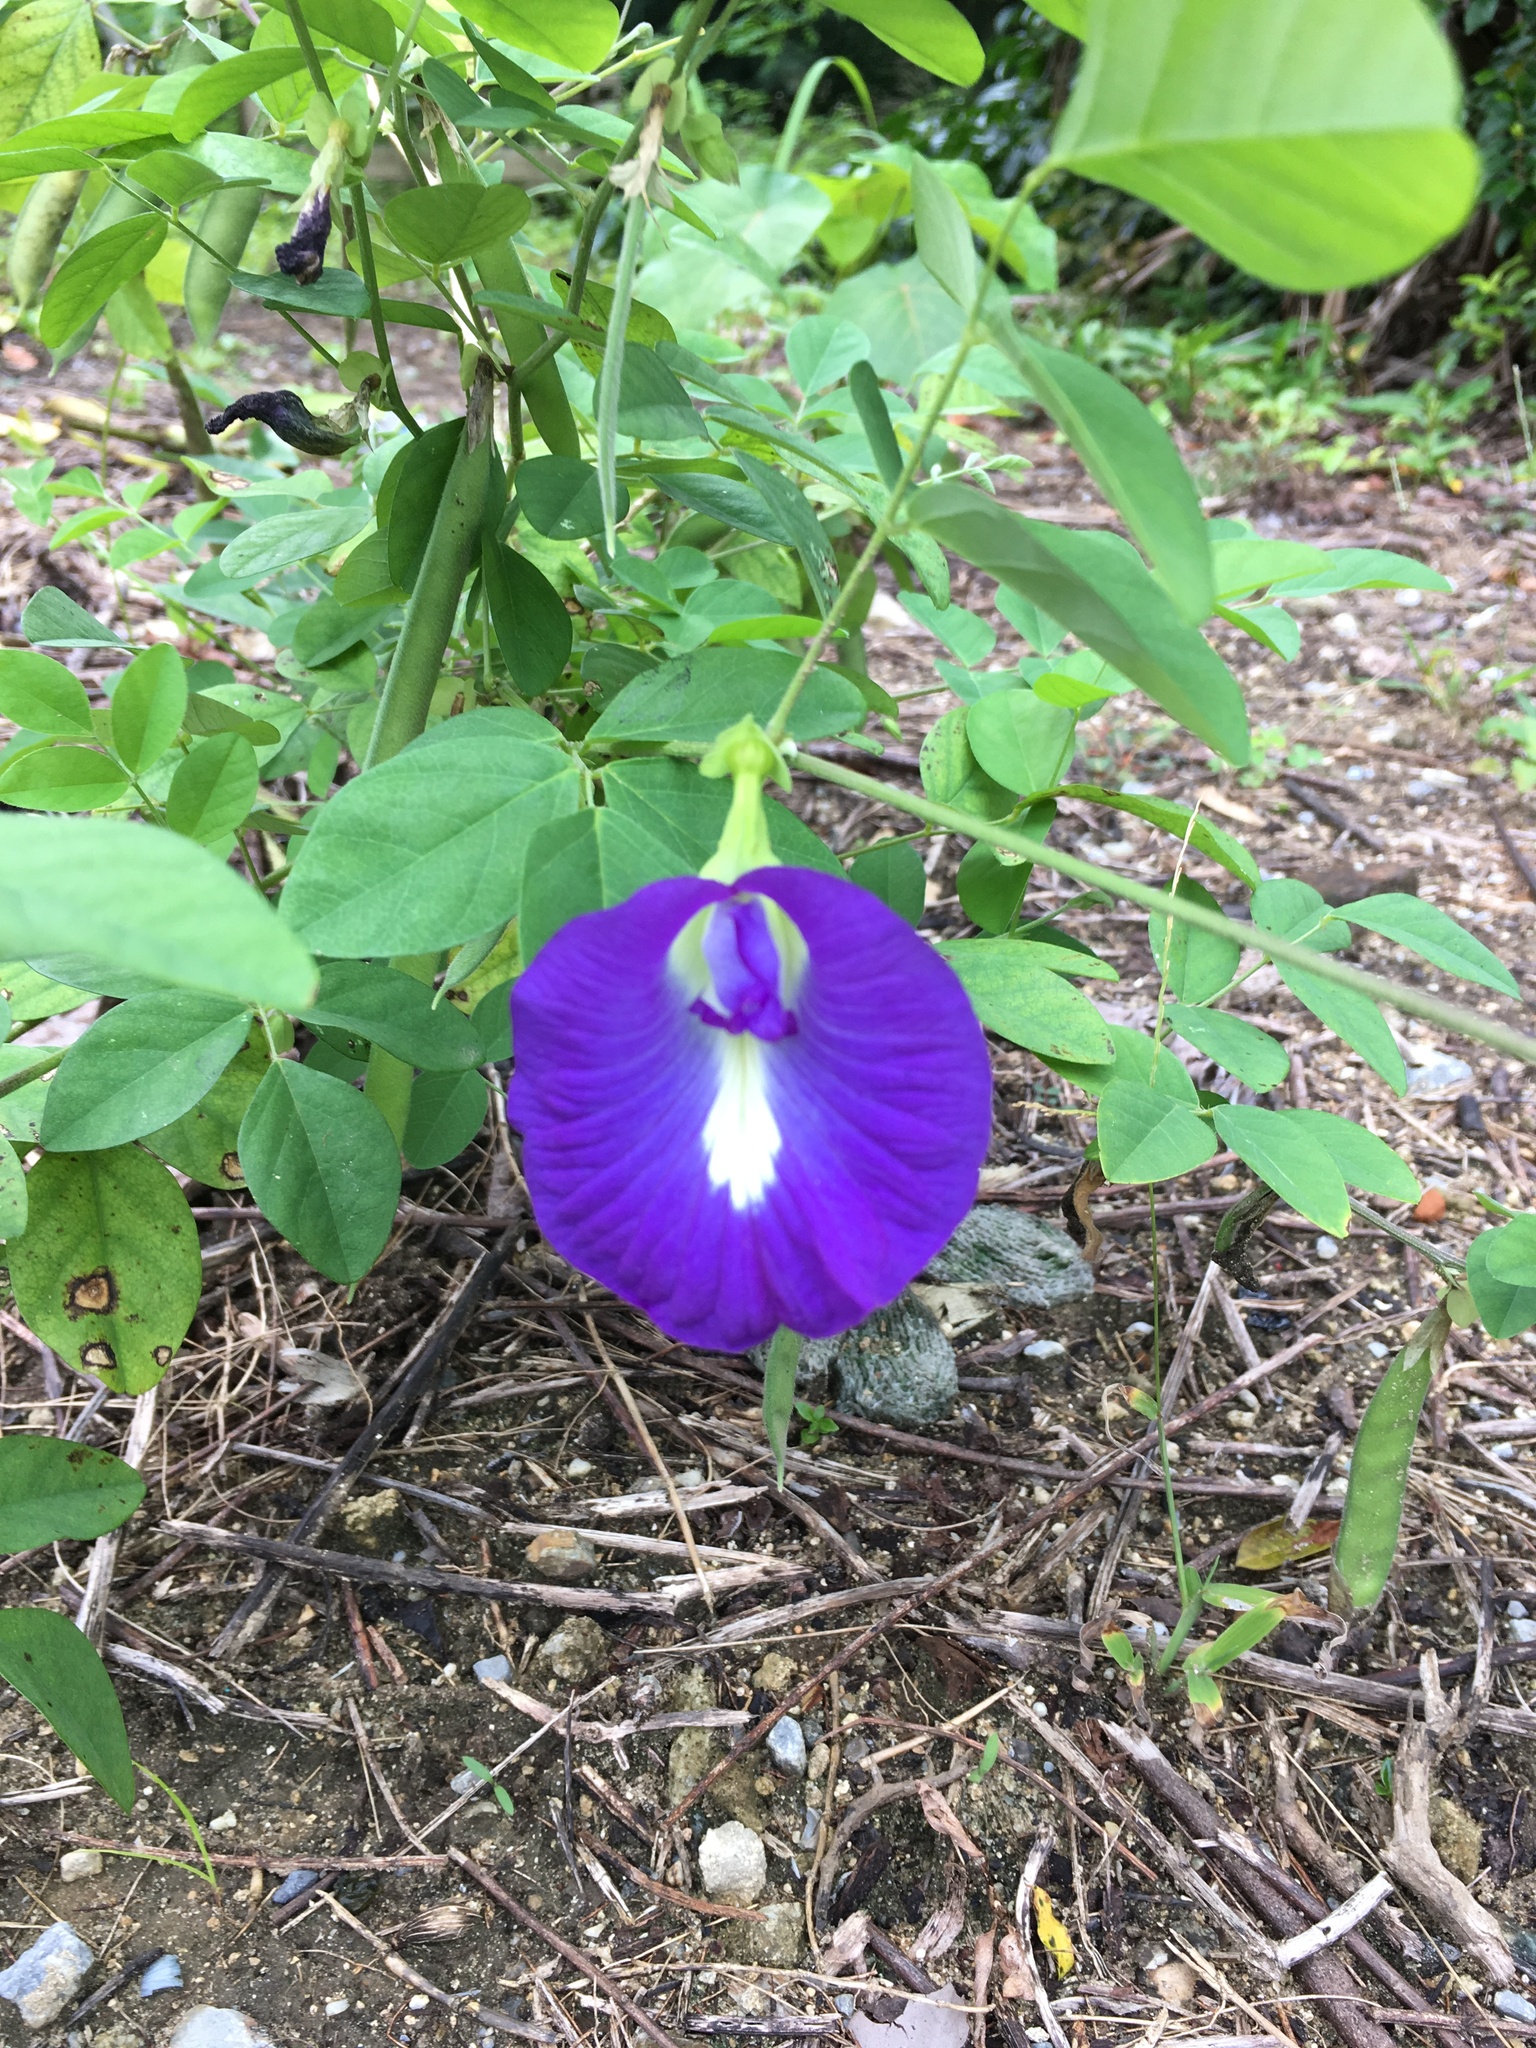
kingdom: Plantae
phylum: Tracheophyta
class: Magnoliopsida
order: Fabales
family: Fabaceae
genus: Clitoria
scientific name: Clitoria ternatea
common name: Asian pigeonwings
